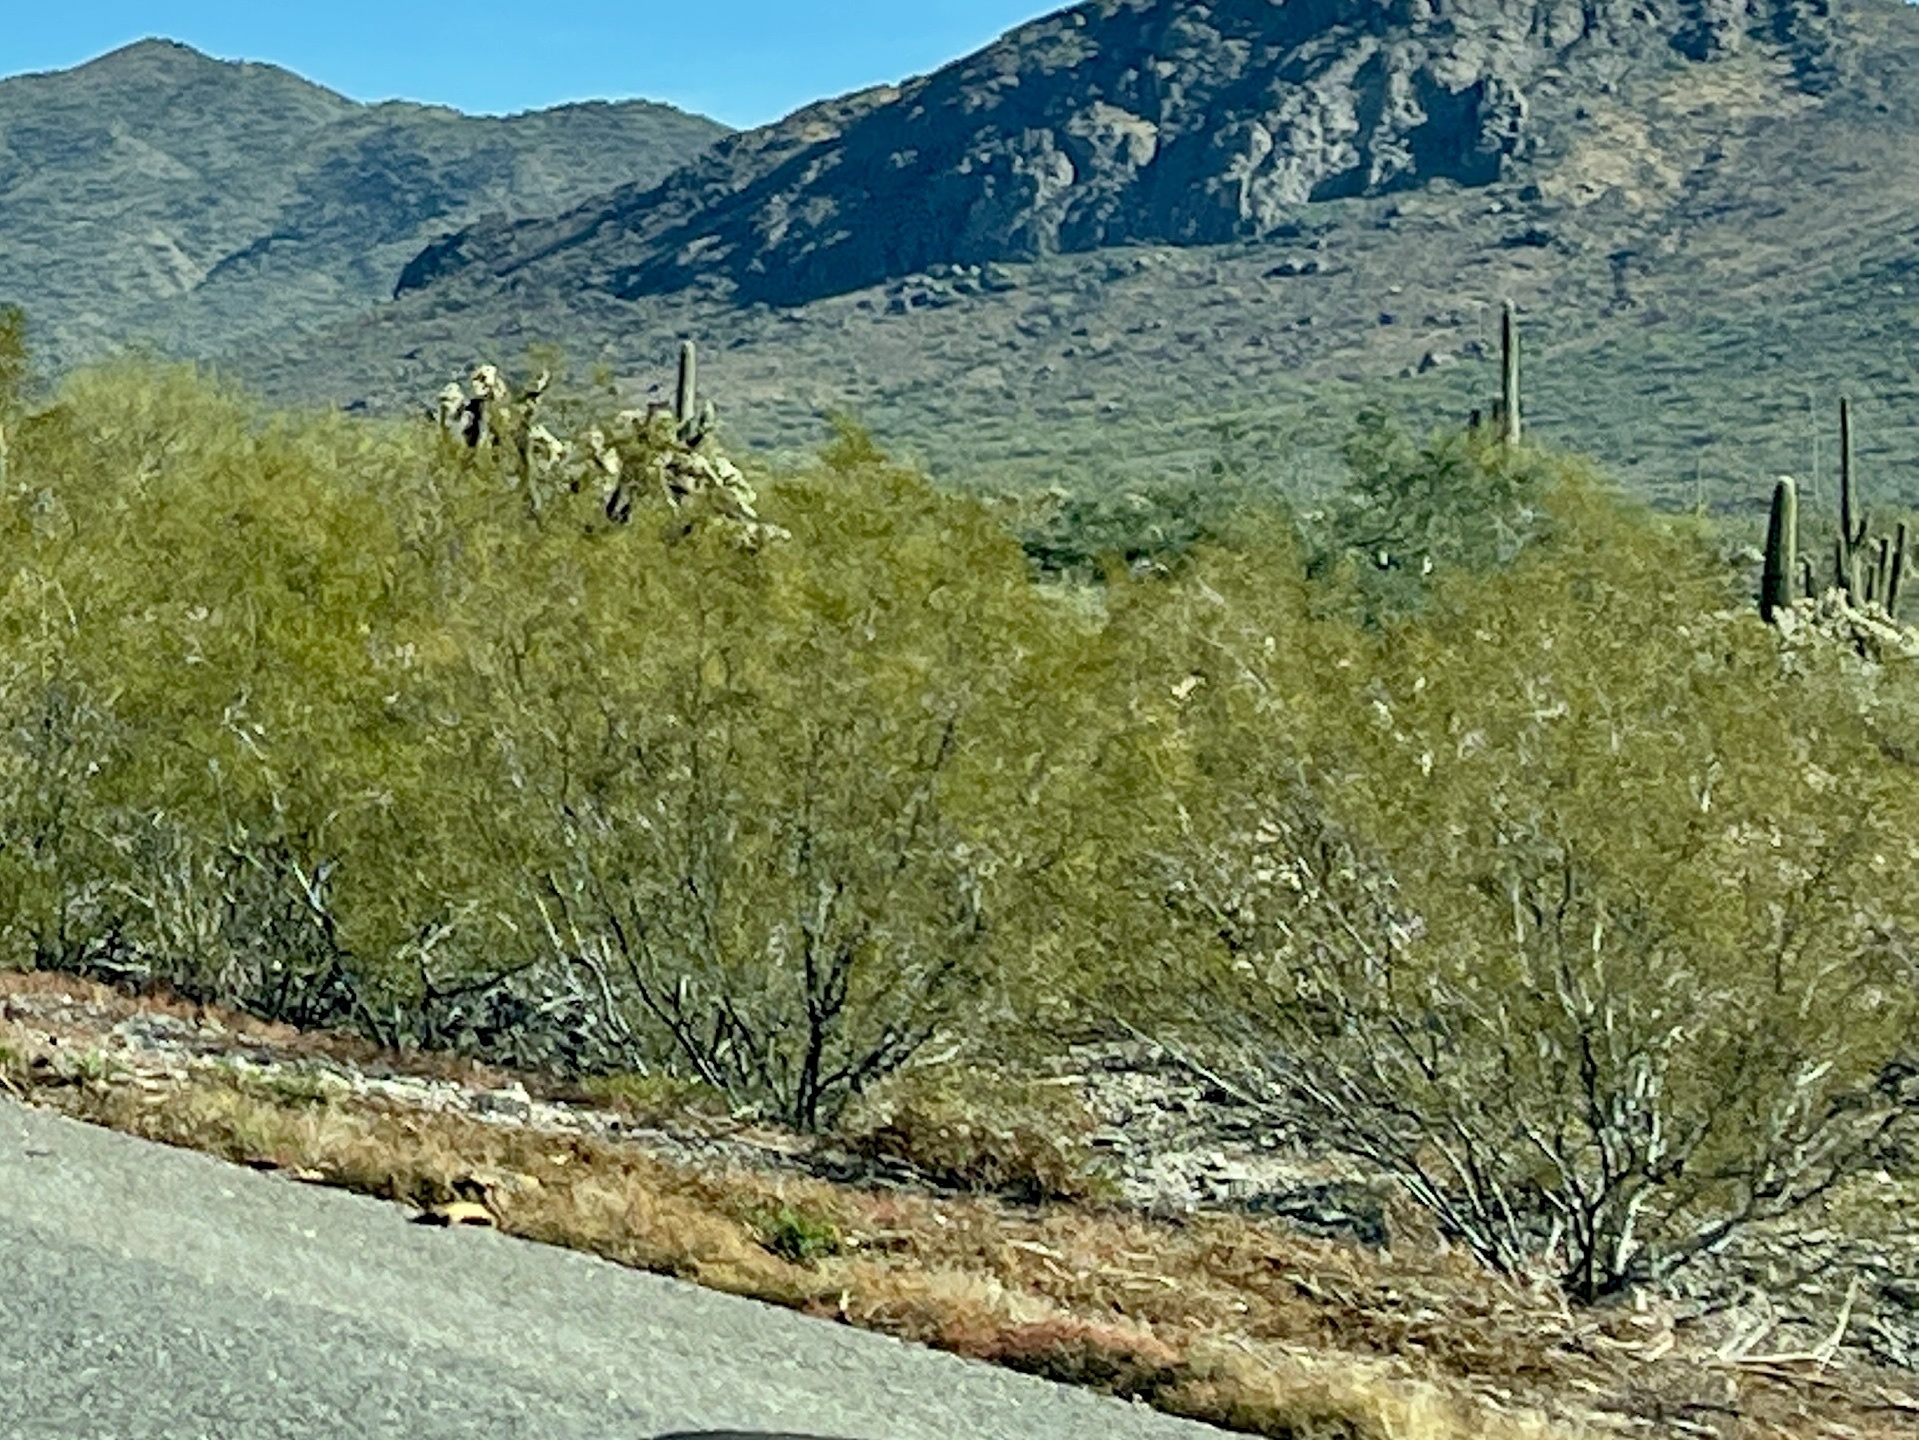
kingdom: Plantae
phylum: Tracheophyta
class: Magnoliopsida
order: Zygophyllales
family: Zygophyllaceae
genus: Larrea
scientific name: Larrea tridentata
